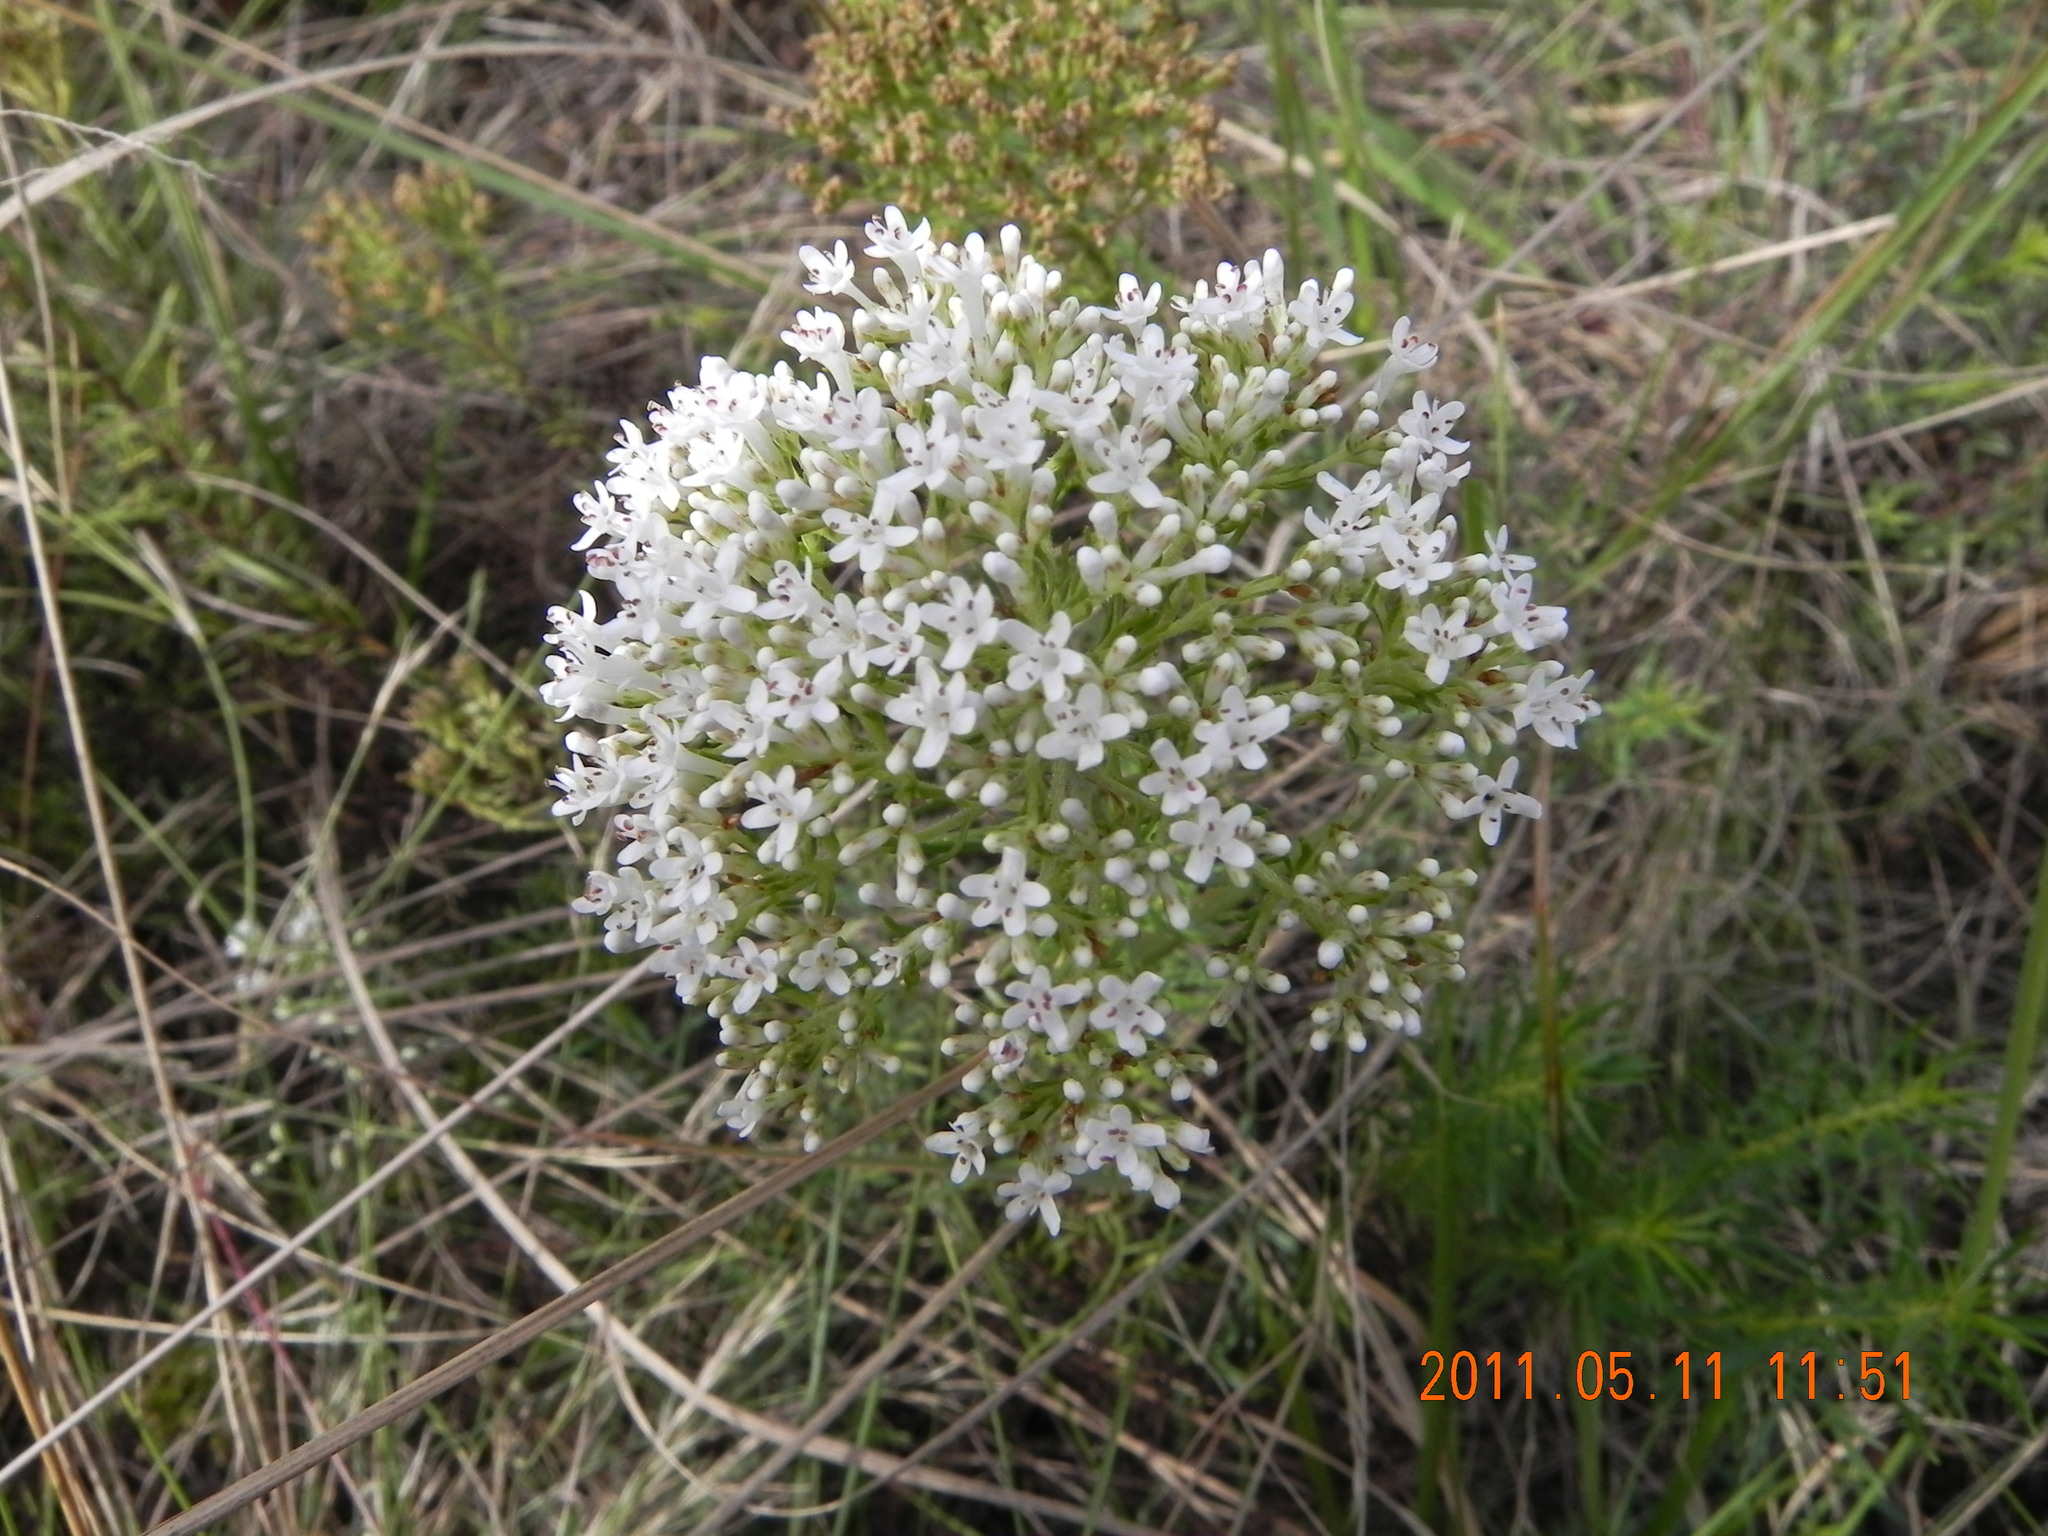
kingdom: Plantae
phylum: Tracheophyta
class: Magnoliopsida
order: Lamiales
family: Scrophulariaceae
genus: Selago
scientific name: Selago tarachodes
